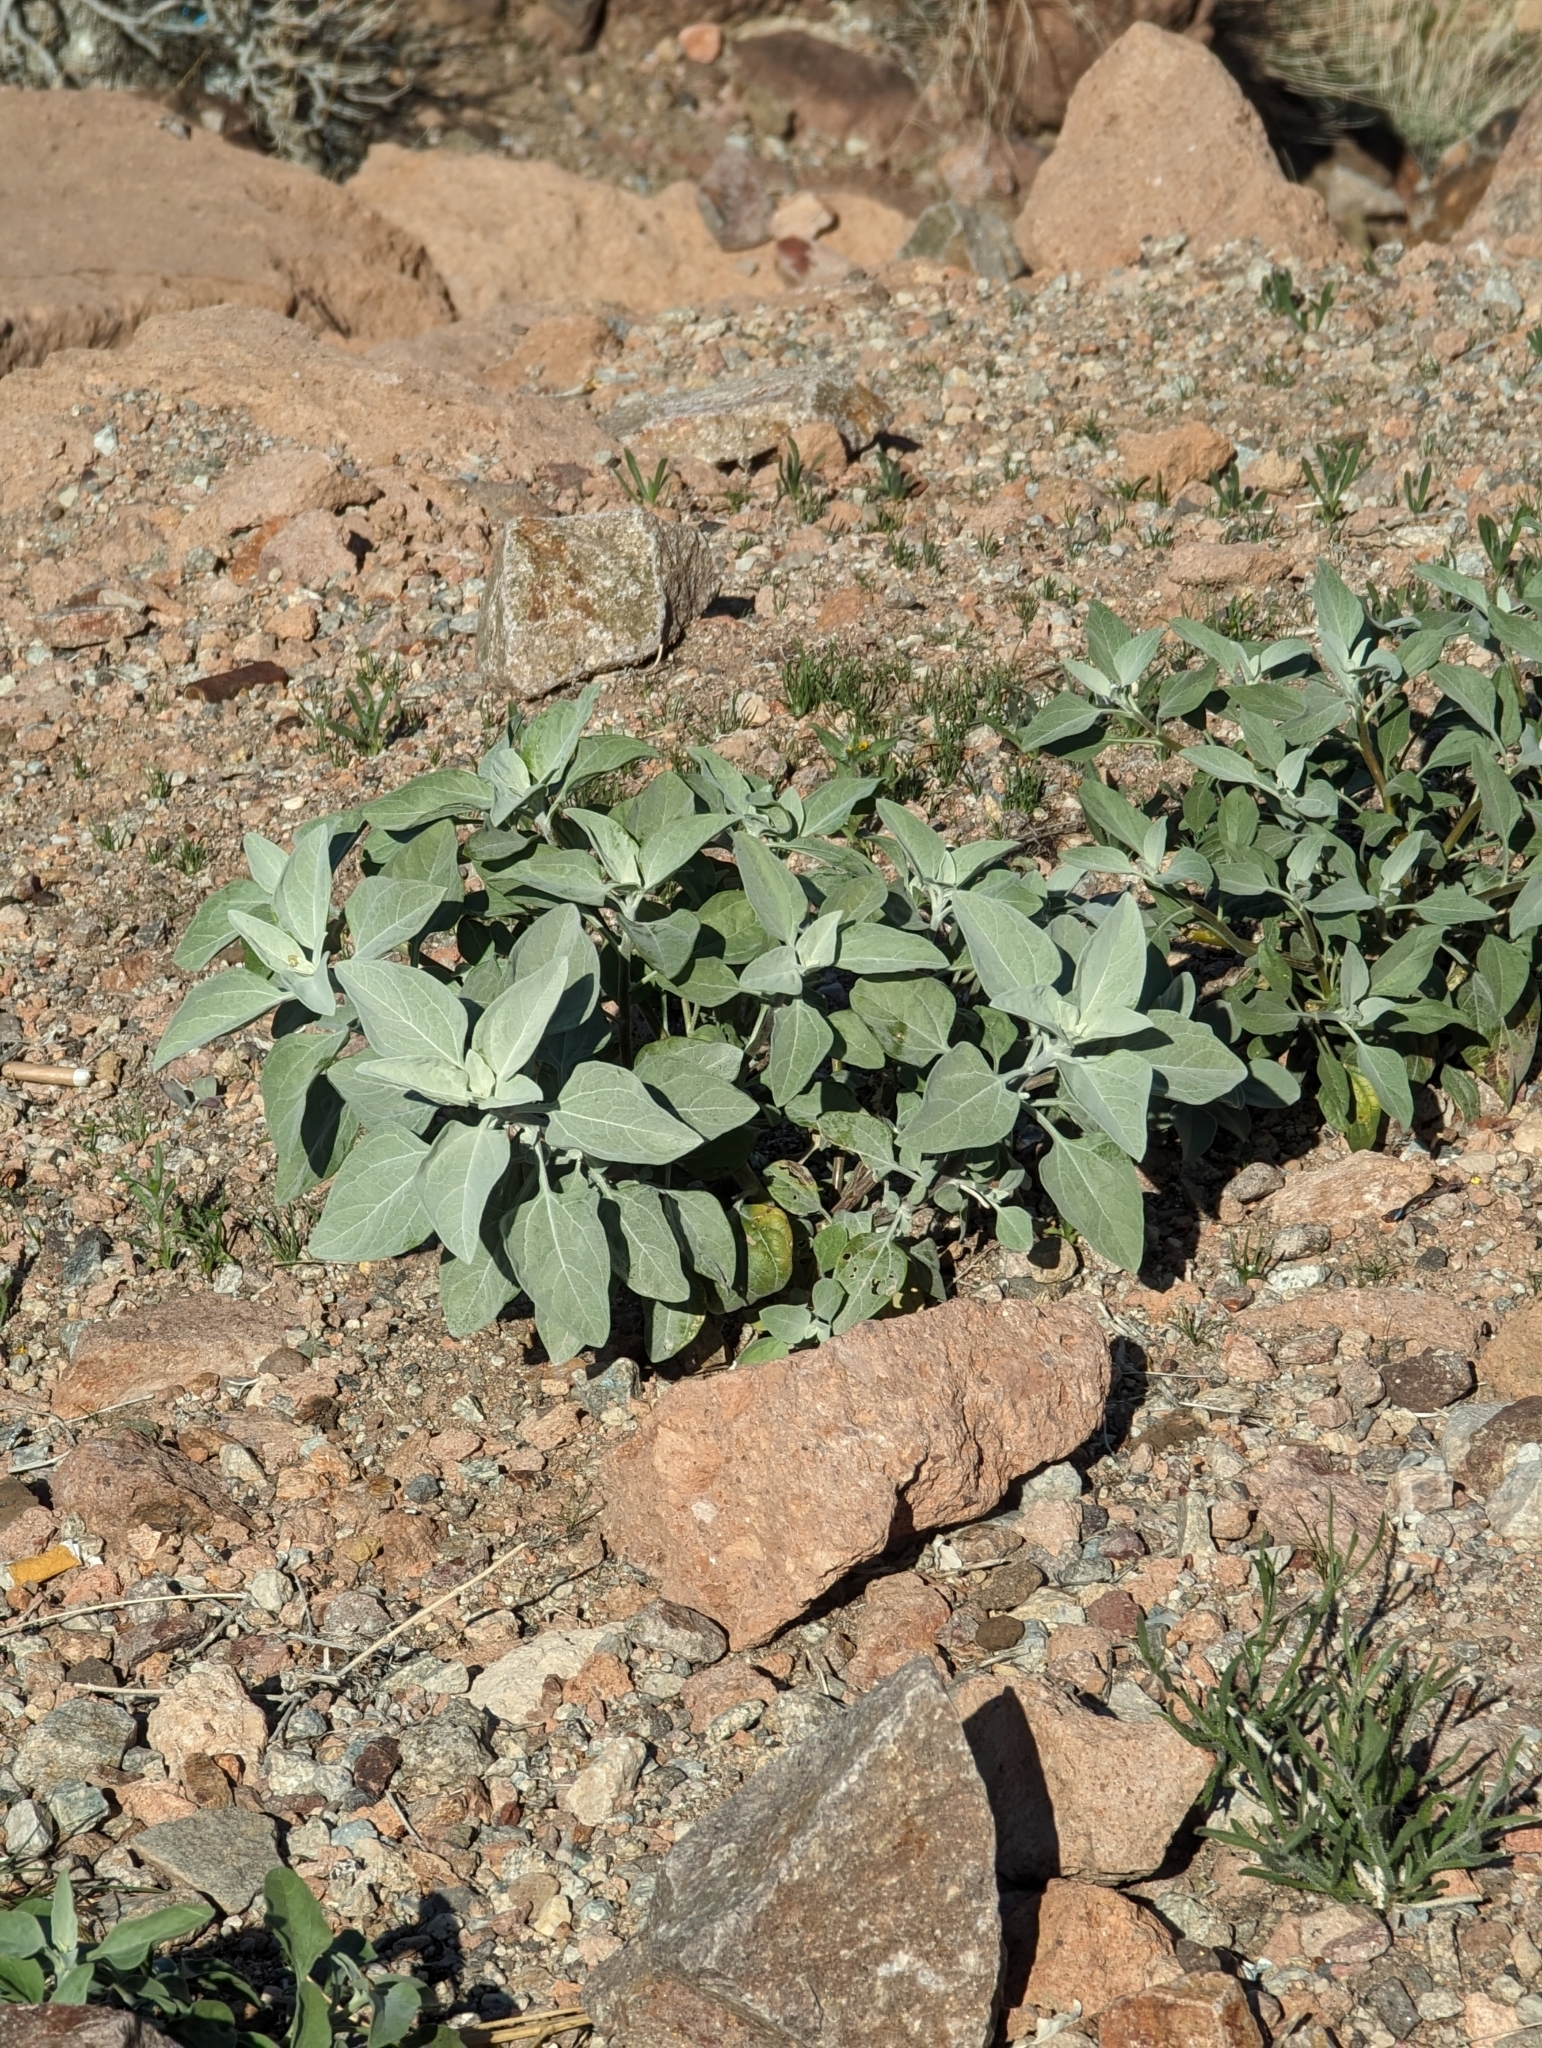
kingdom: Plantae
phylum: Tracheophyta
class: Magnoliopsida
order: Asterales
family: Asteraceae
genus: Encelia
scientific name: Encelia farinosa
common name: Brittlebush
